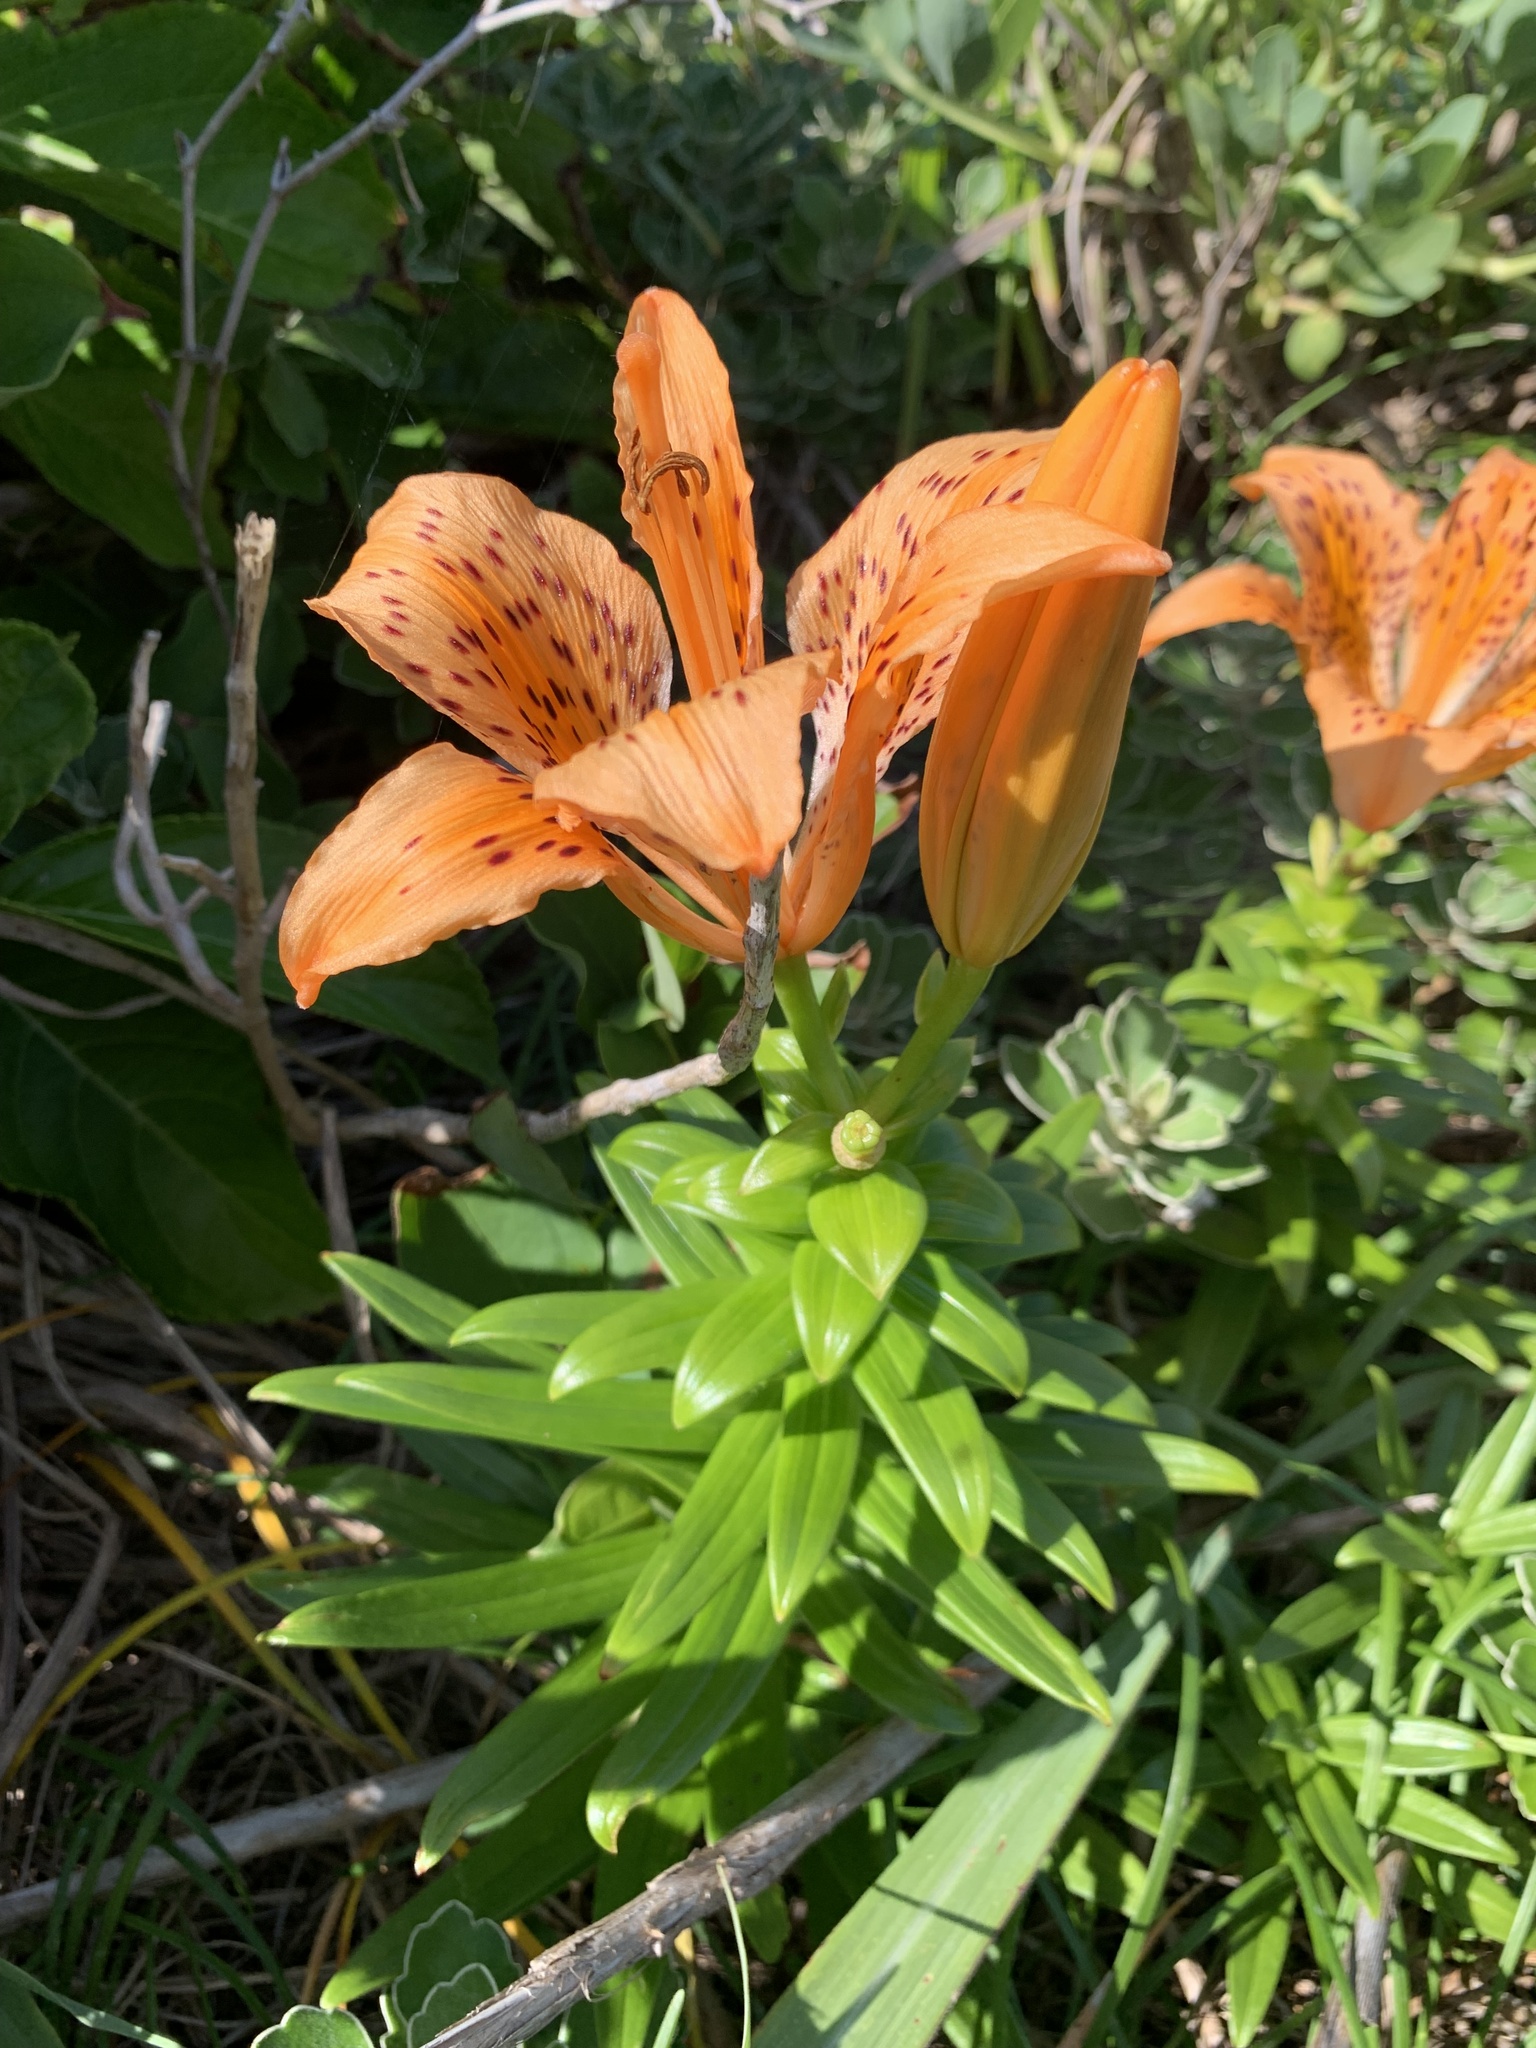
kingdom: Plantae
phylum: Tracheophyta
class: Liliopsida
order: Liliales
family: Liliaceae
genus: Lilium
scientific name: Lilium maculatum
